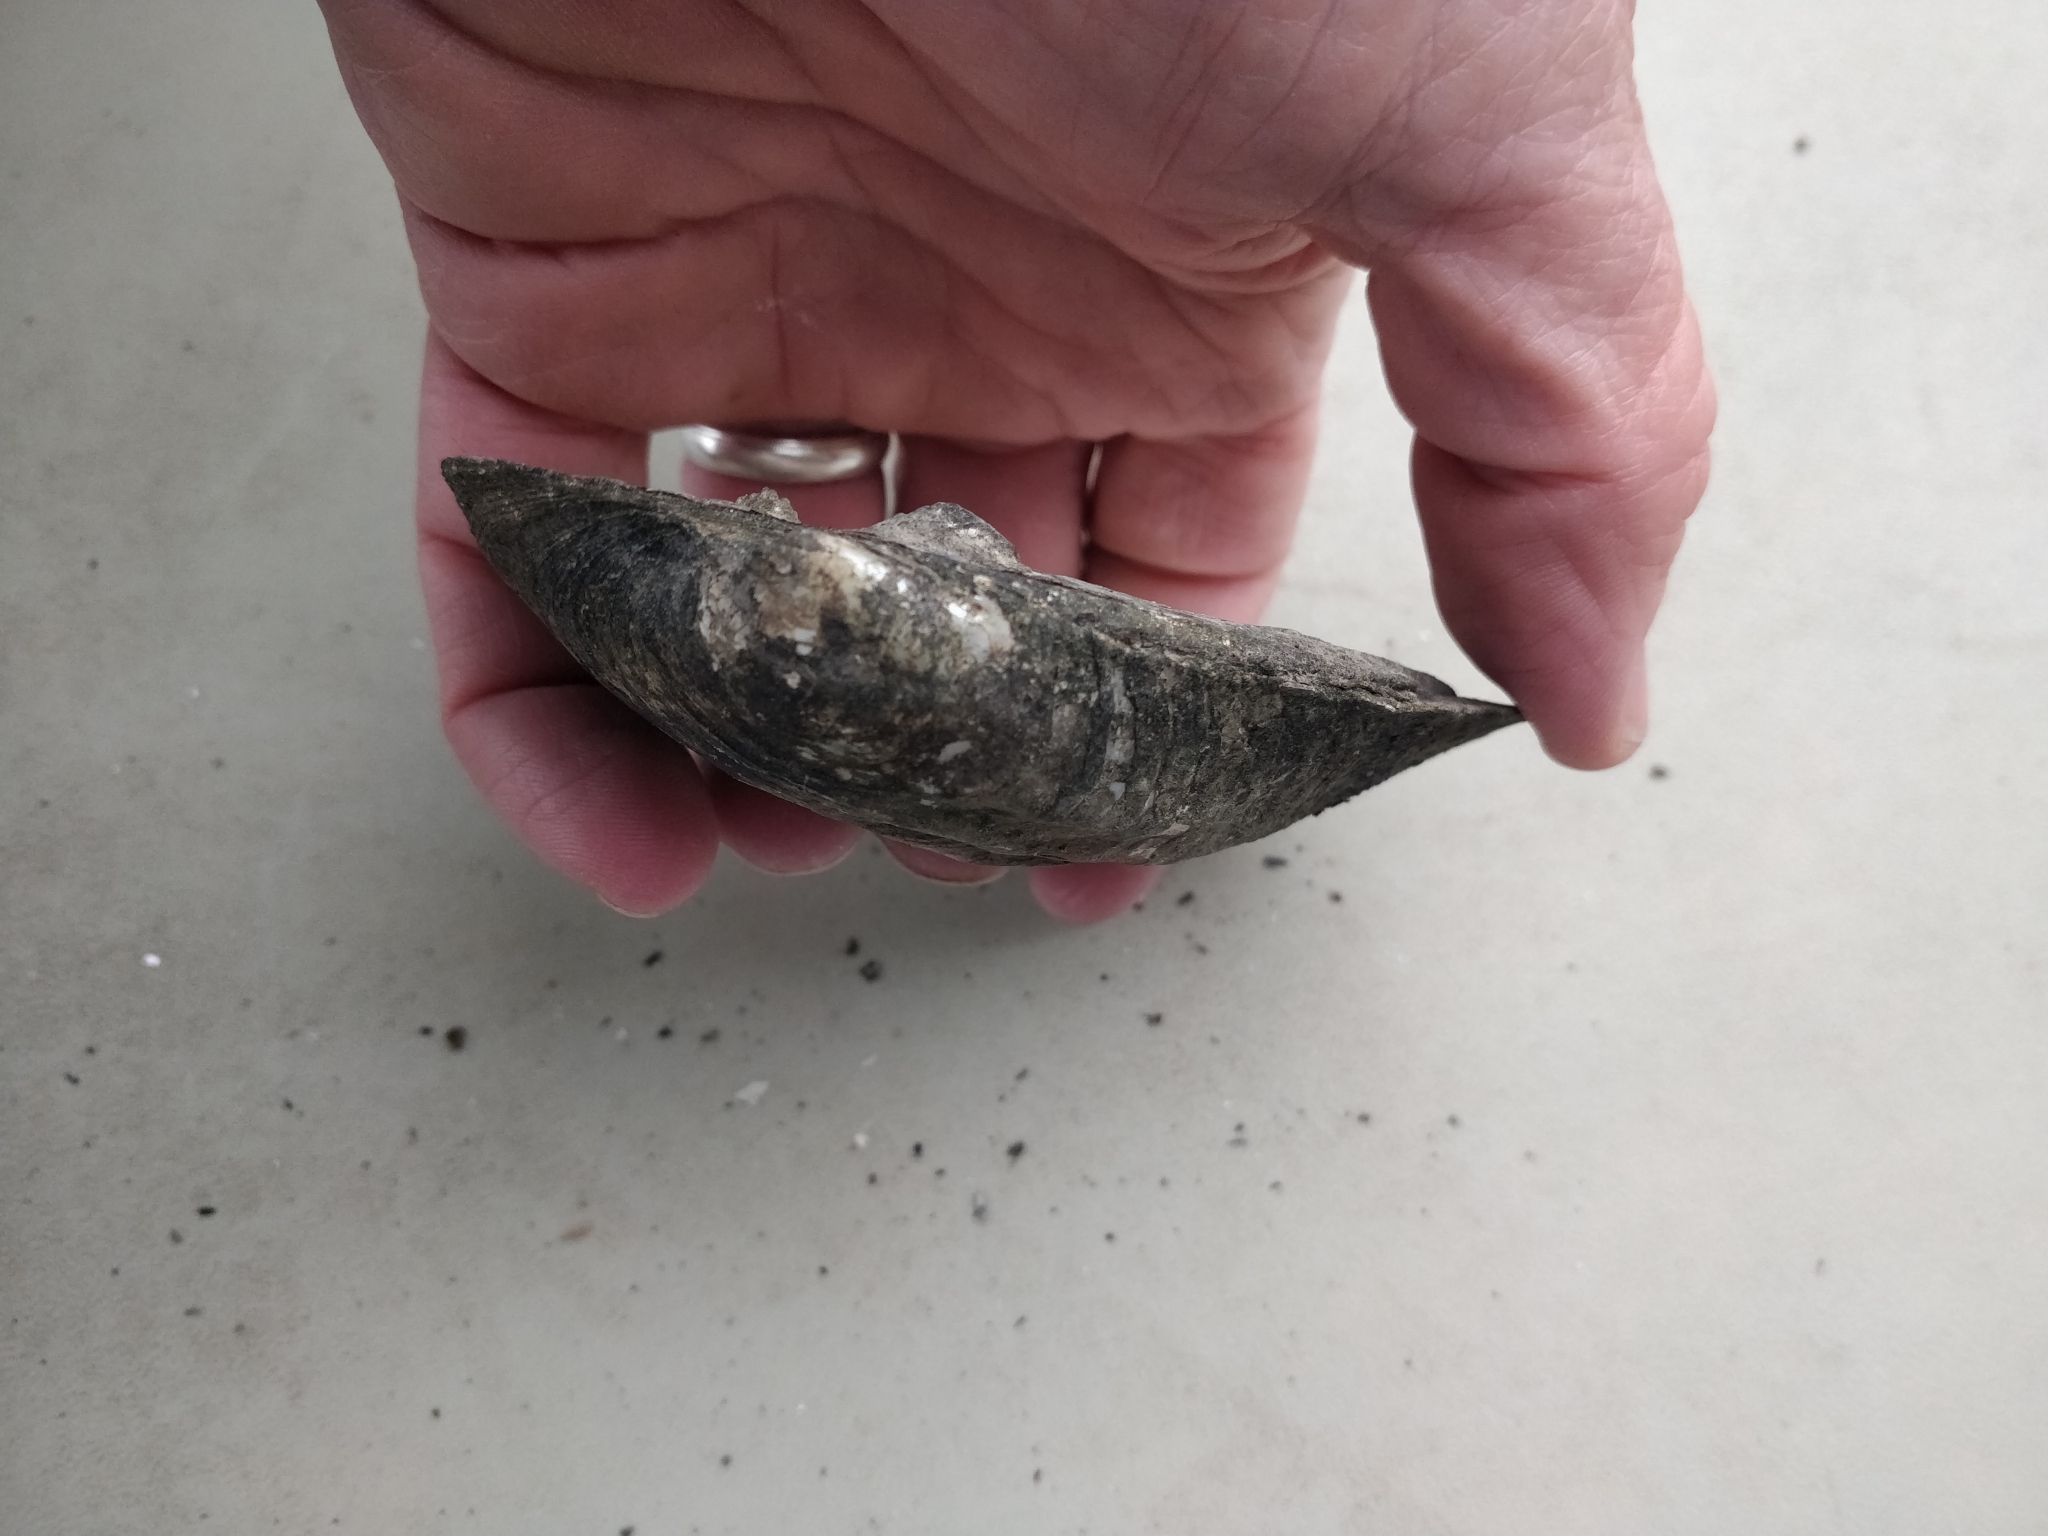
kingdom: Animalia
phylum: Mollusca
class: Bivalvia
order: Unionida
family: Unionidae
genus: Amblema
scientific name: Amblema plicata
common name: Threeridge
